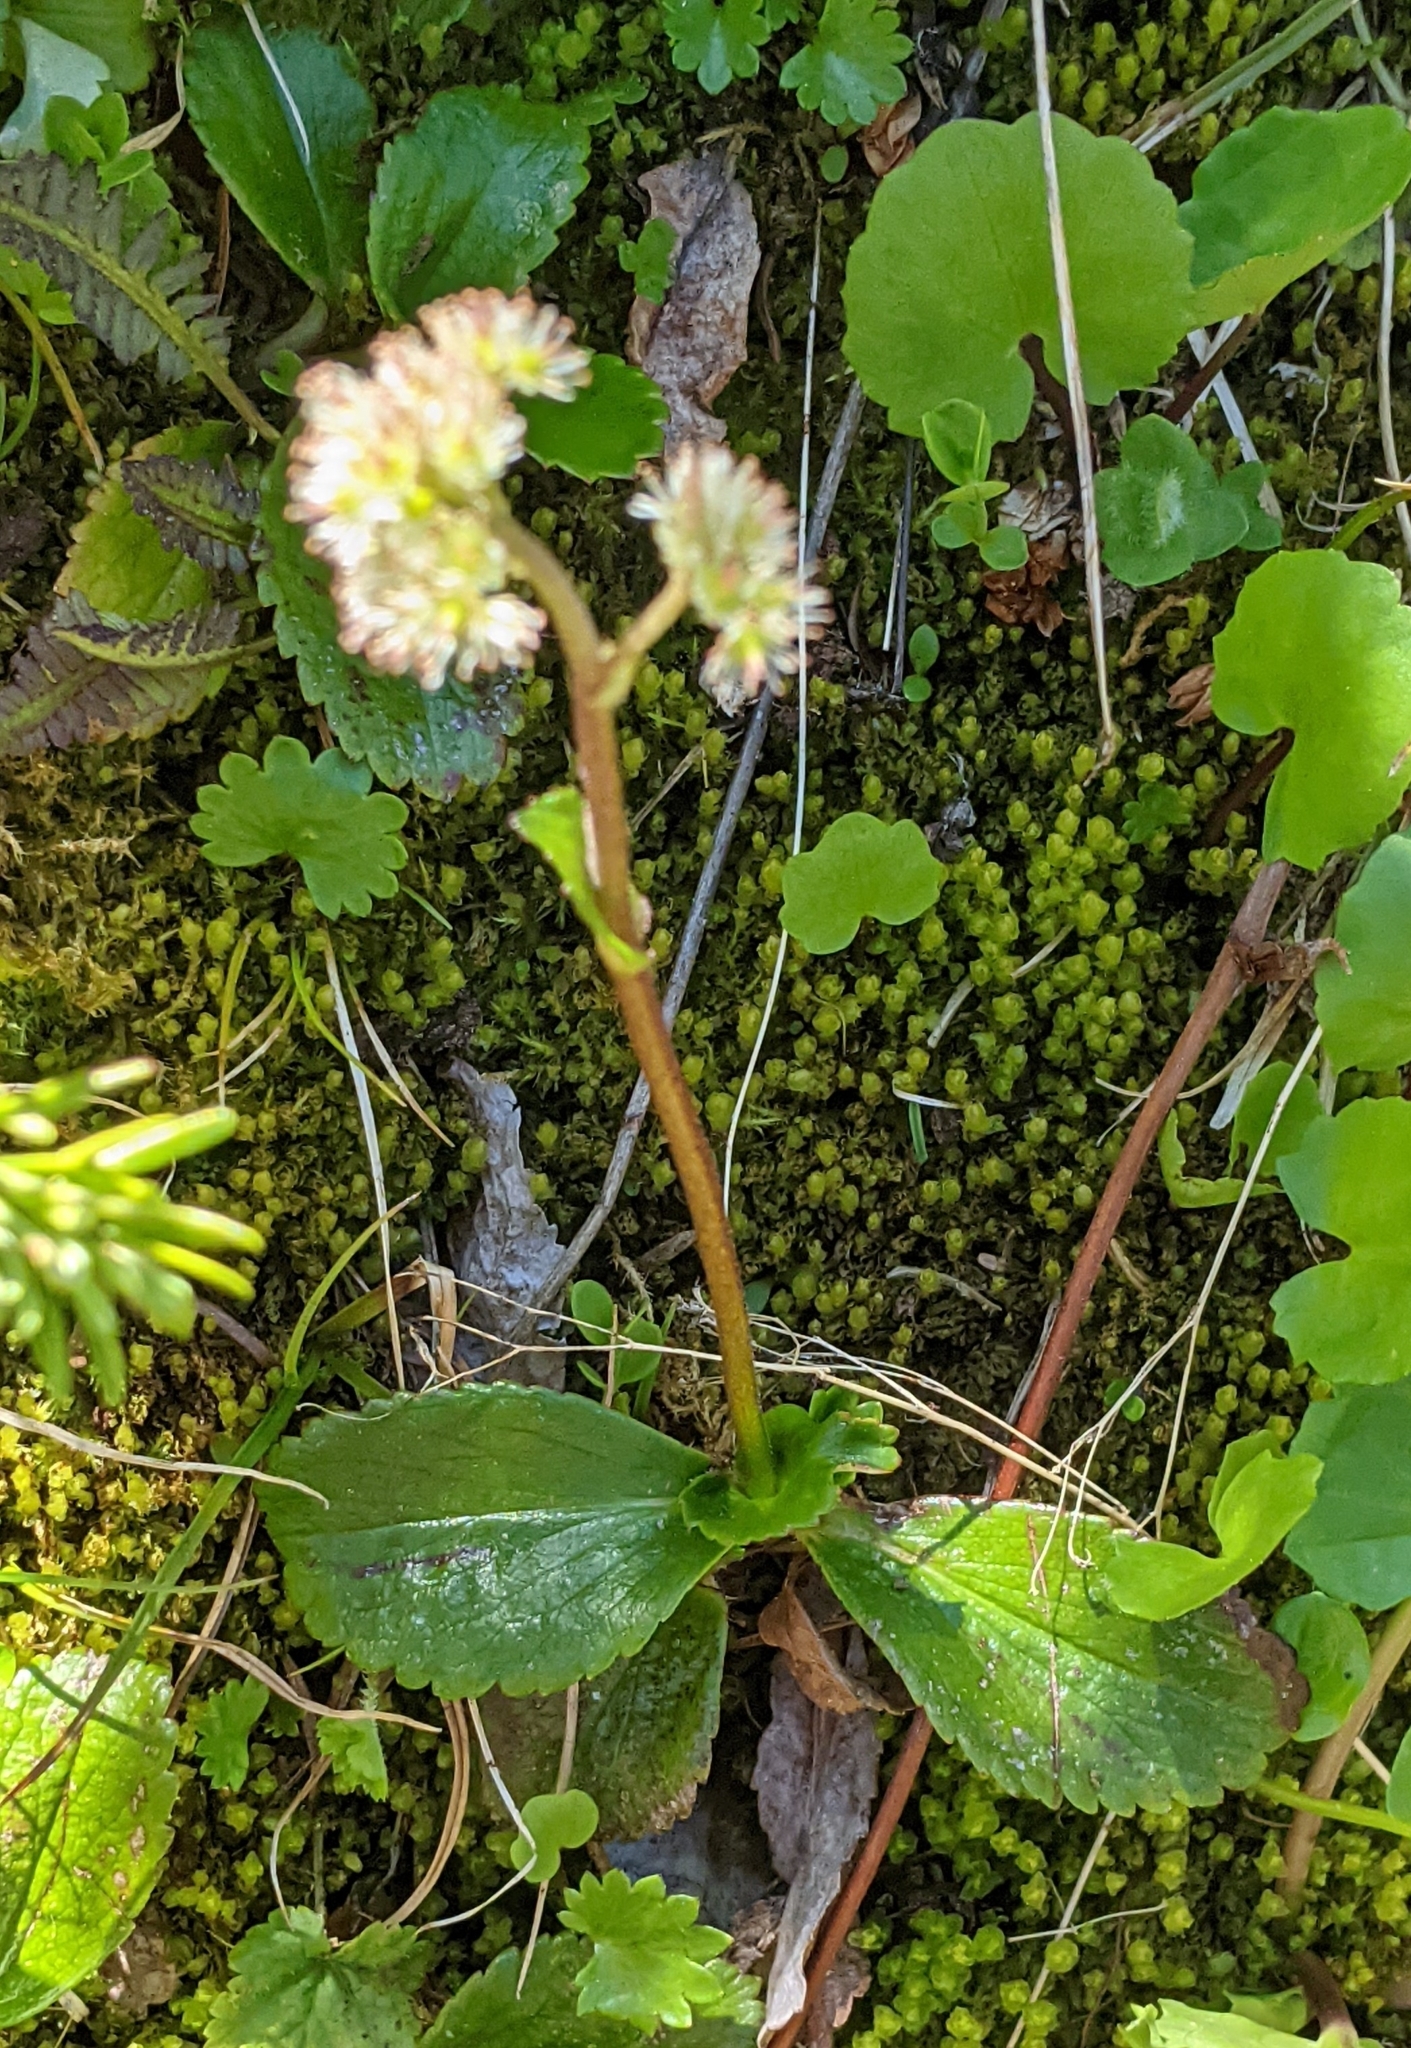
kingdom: Plantae
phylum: Tracheophyta
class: Magnoliopsida
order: Saxifragales
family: Saxifragaceae
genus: Leptarrhena
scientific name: Leptarrhena pyrolifolia
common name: Leatherleaf-saxifrage
